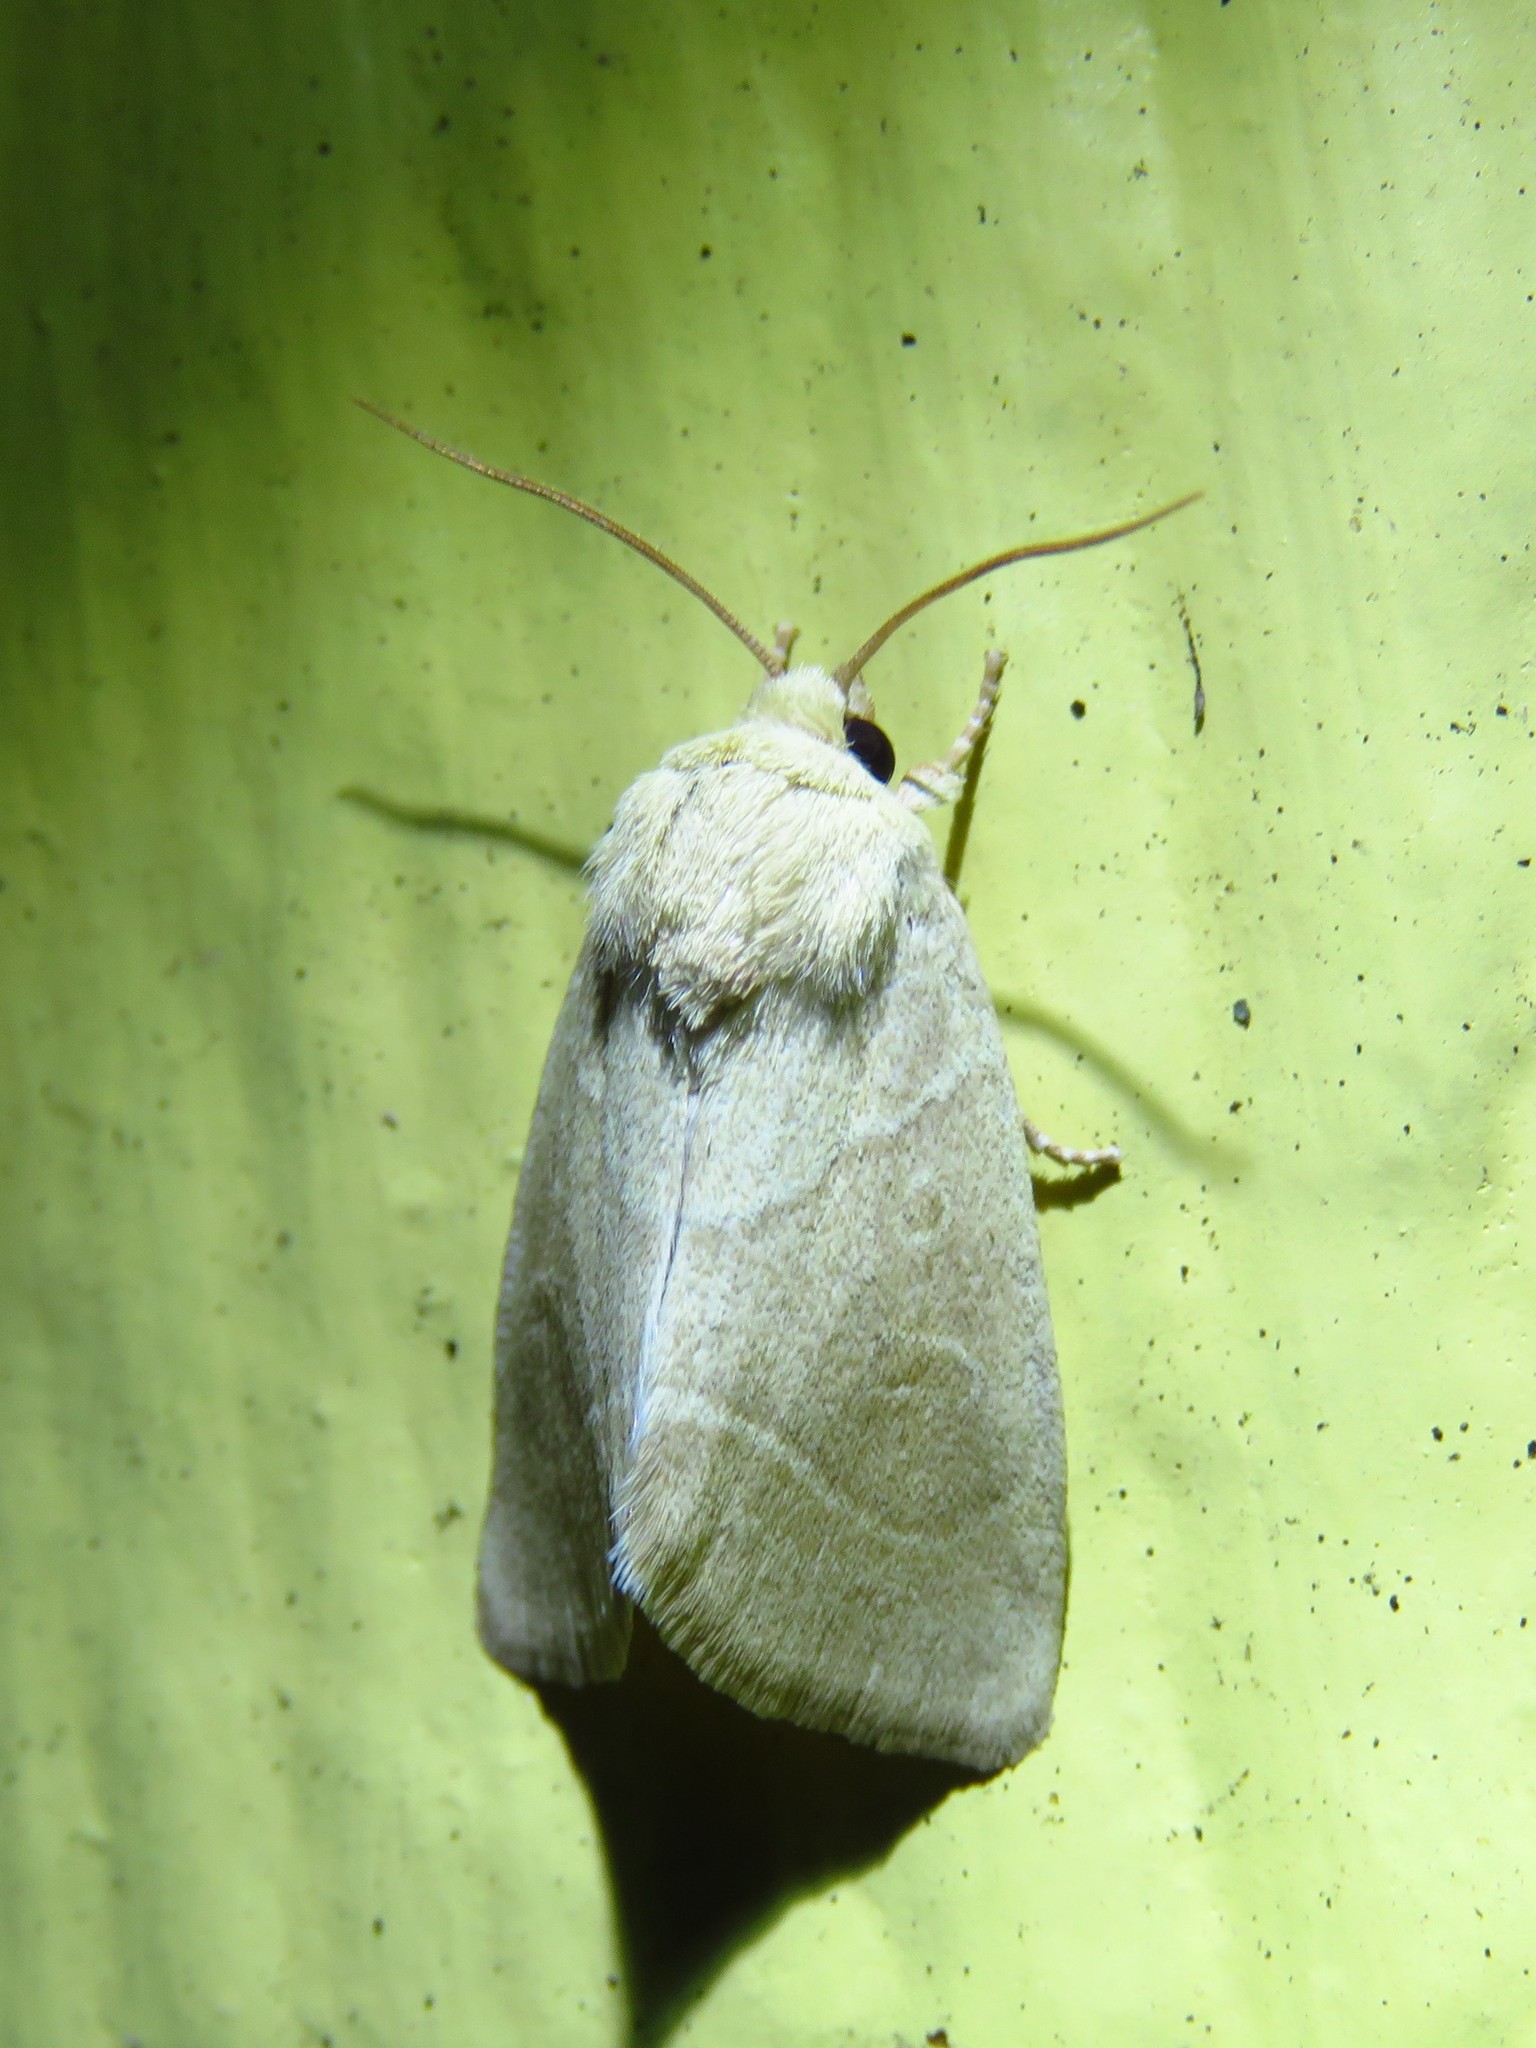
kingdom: Animalia
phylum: Arthropoda
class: Insecta
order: Lepidoptera
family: Noctuidae
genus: Cosmia
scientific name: Cosmia calami
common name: American dun-bar moth
